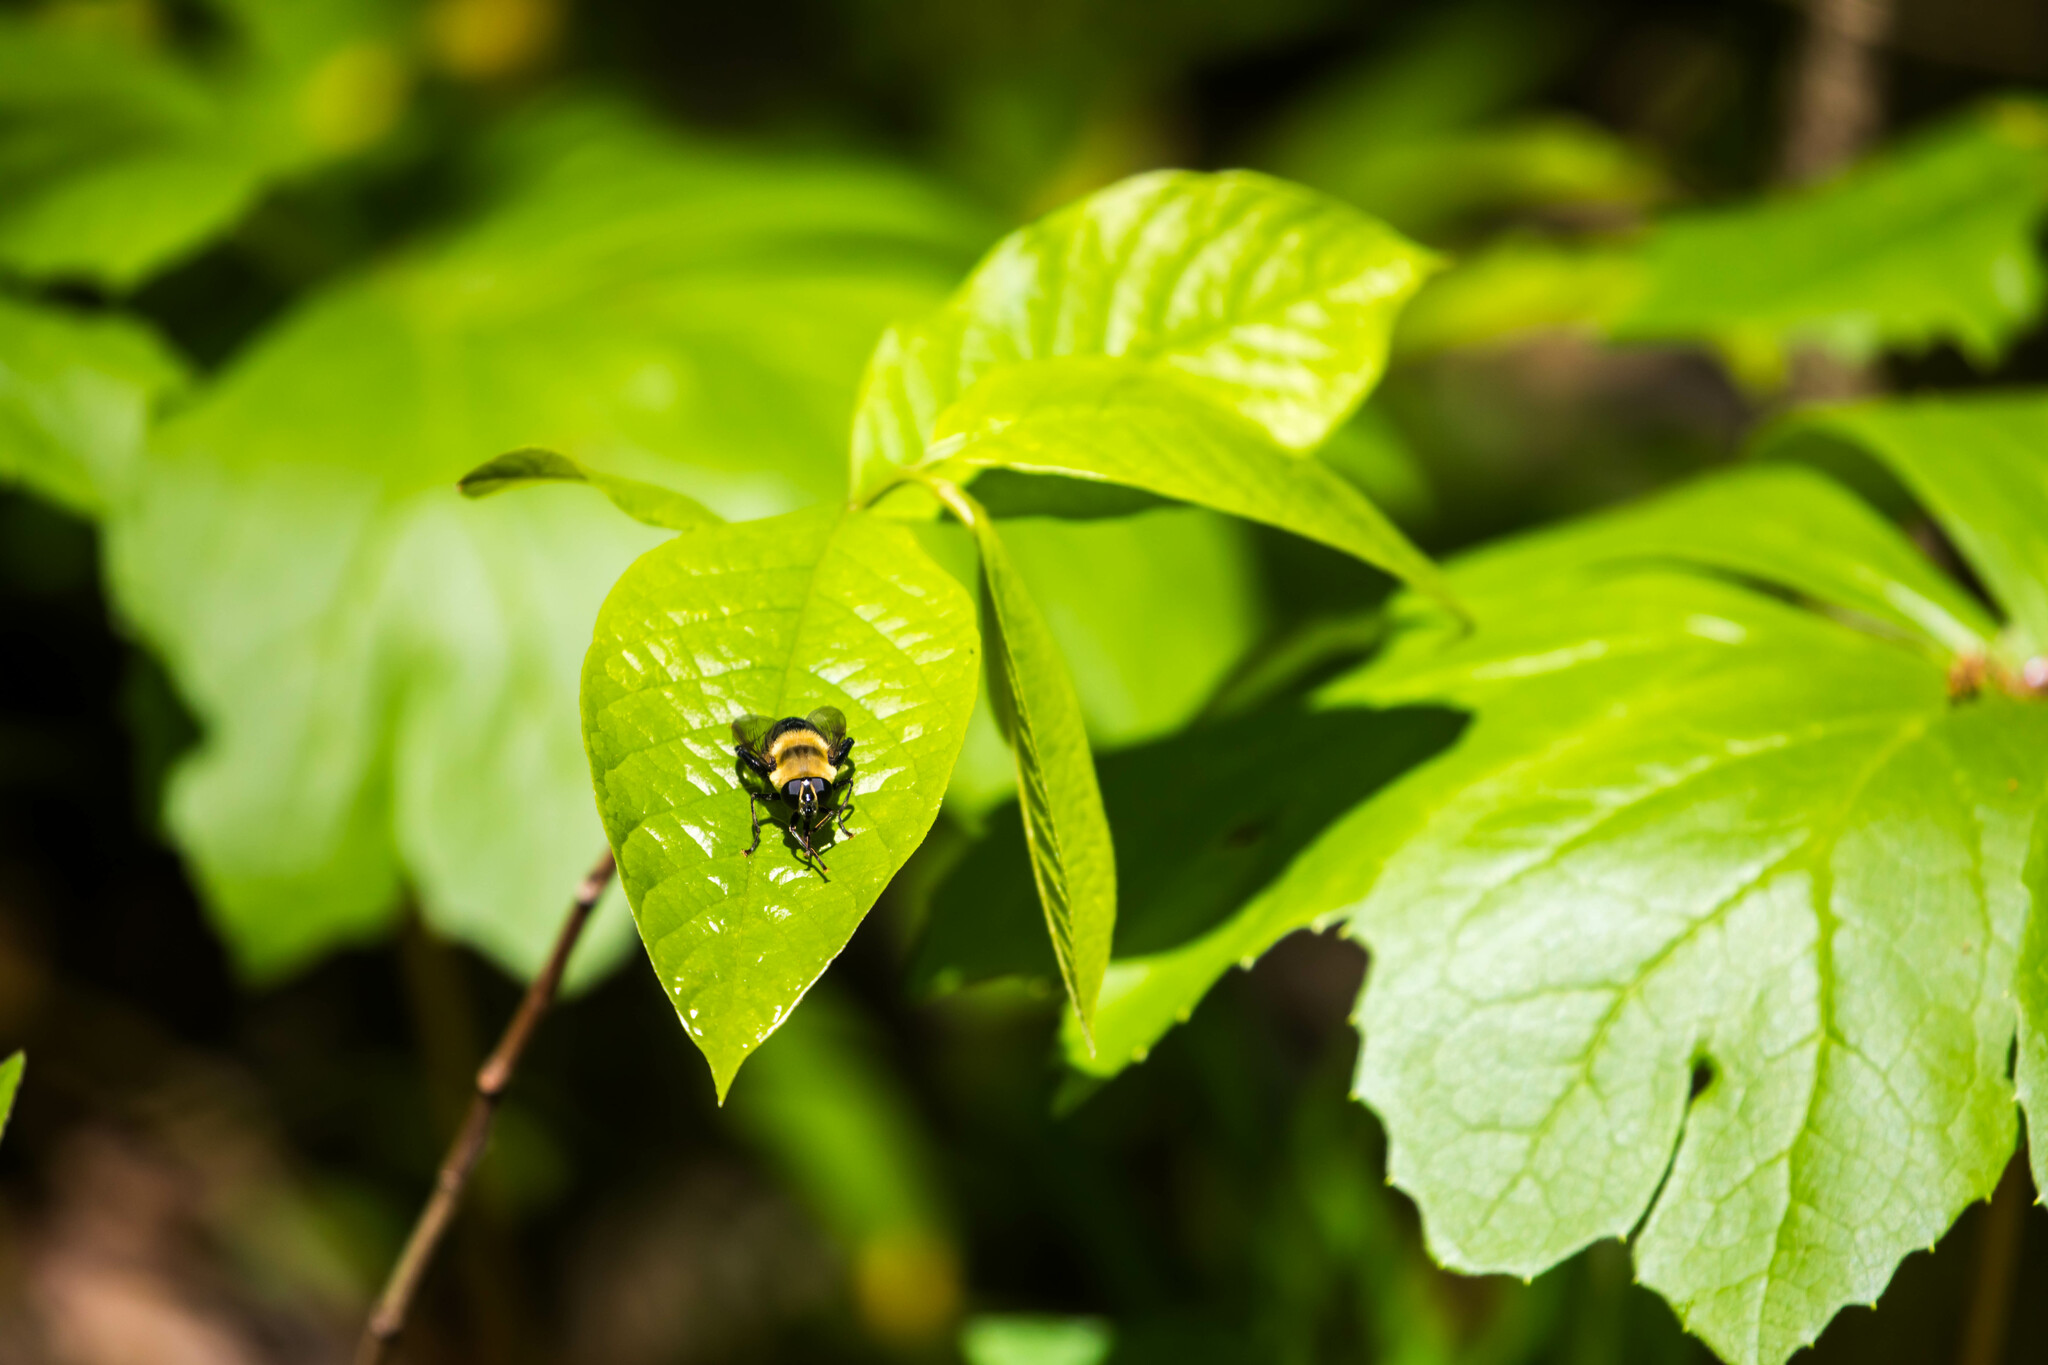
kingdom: Animalia
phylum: Arthropoda
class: Insecta
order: Diptera
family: Syrphidae
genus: Imatisma
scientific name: Imatisma bautias
